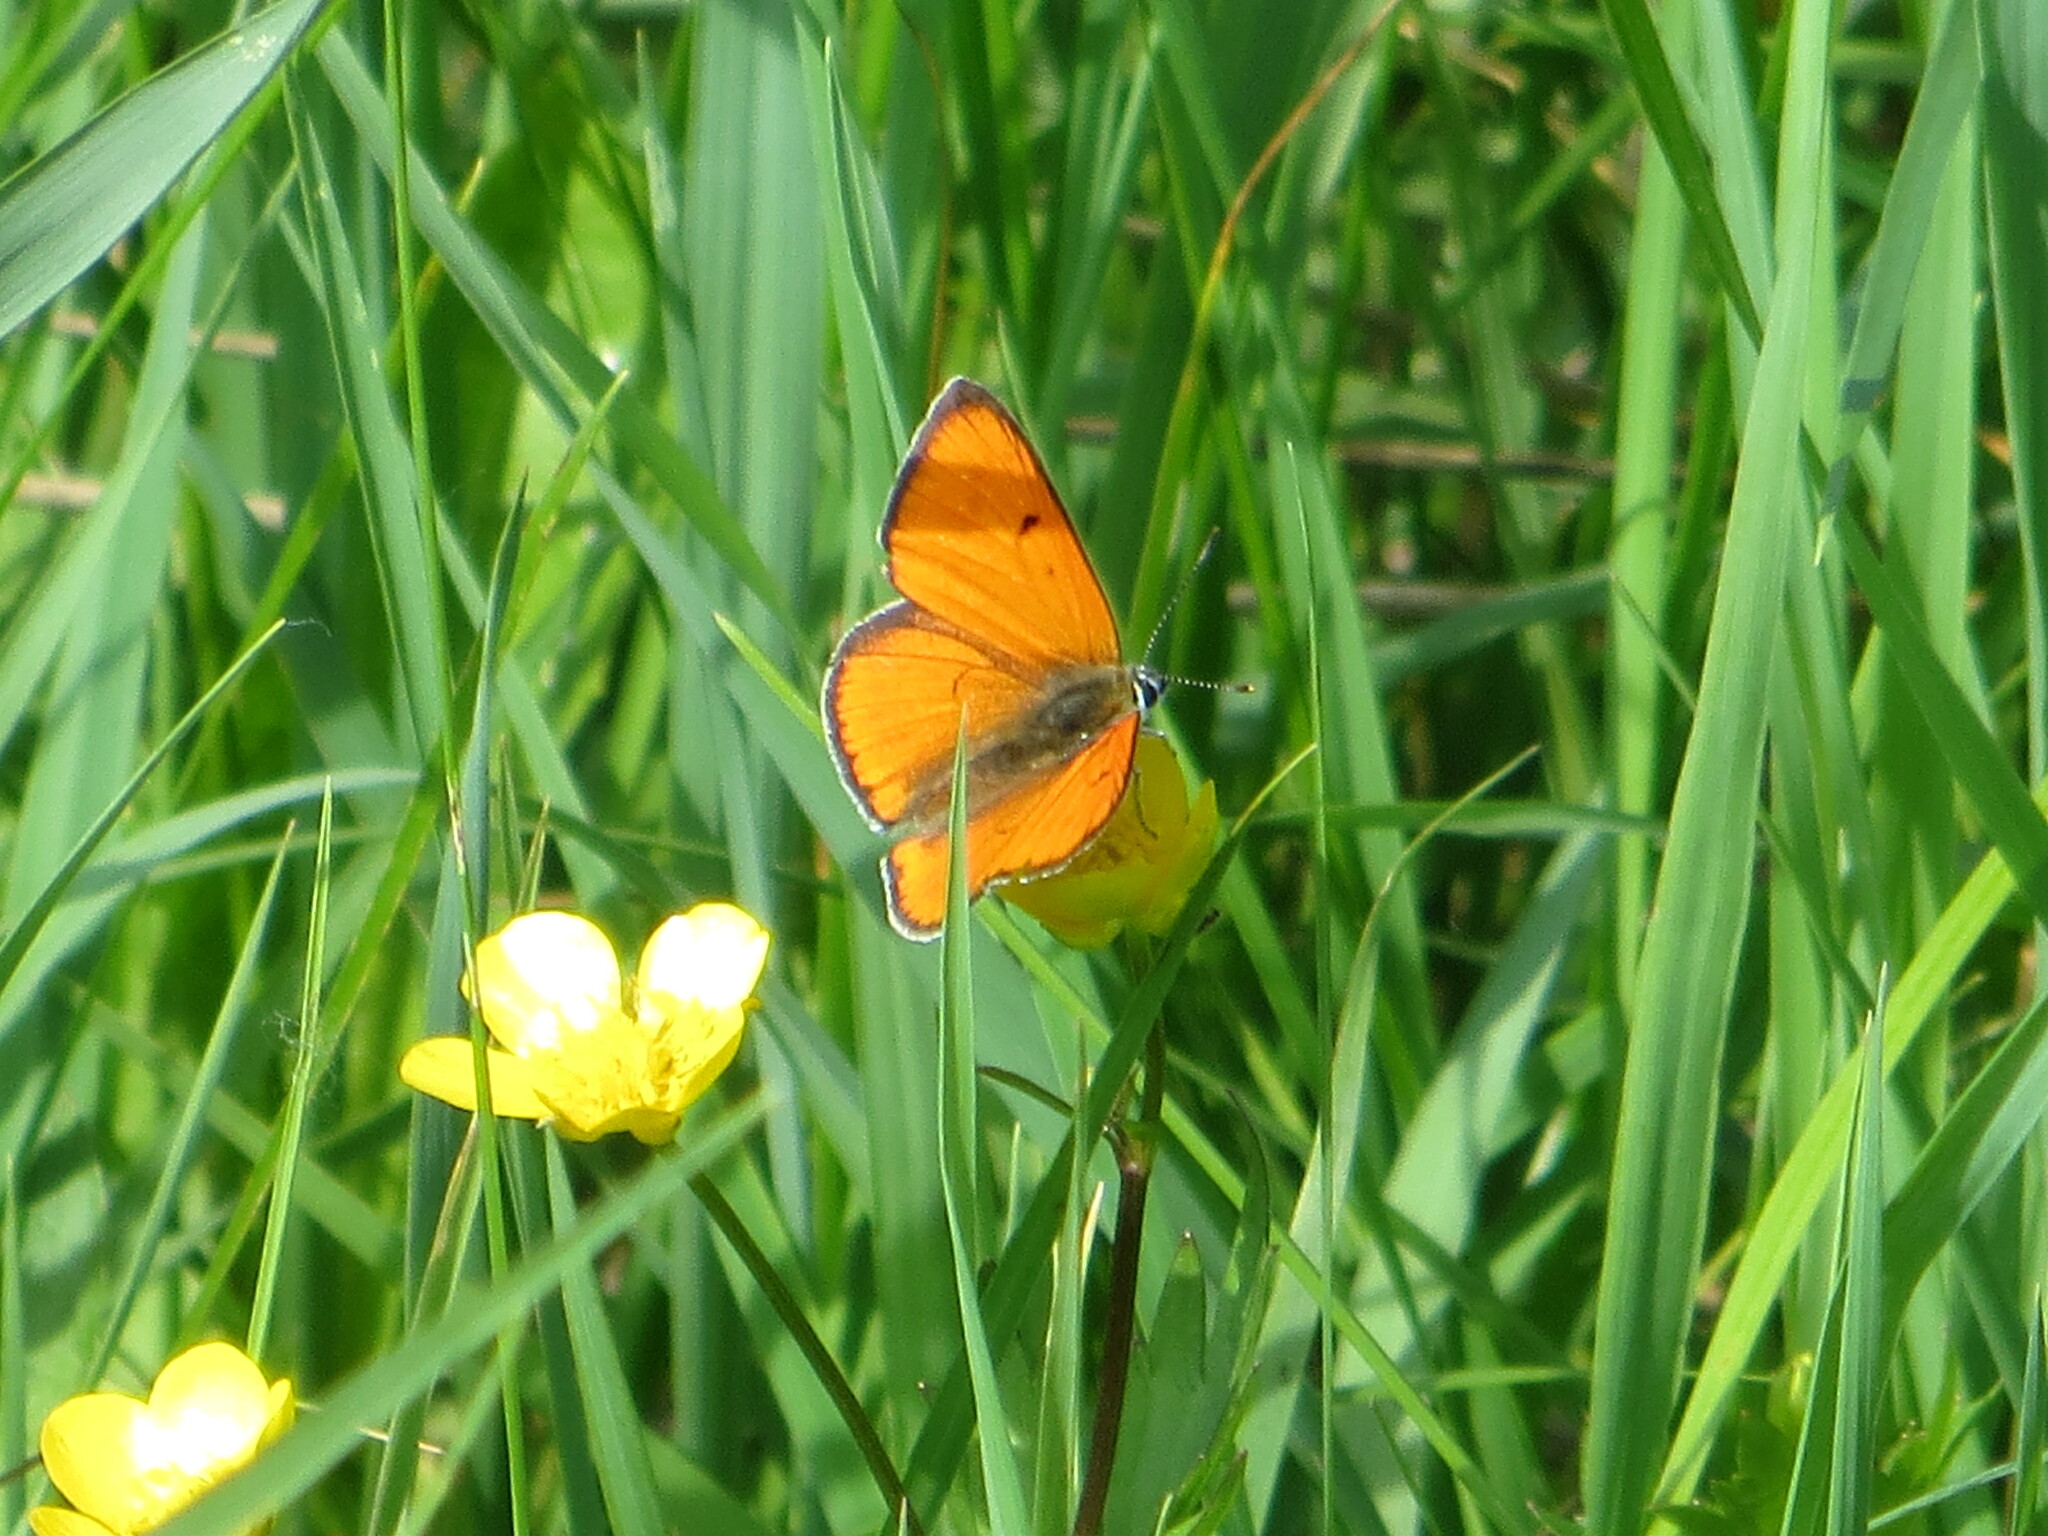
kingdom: Animalia
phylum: Arthropoda
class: Insecta
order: Lepidoptera
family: Lycaenidae
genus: Lycaena
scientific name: Lycaena dispar
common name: Large copper
